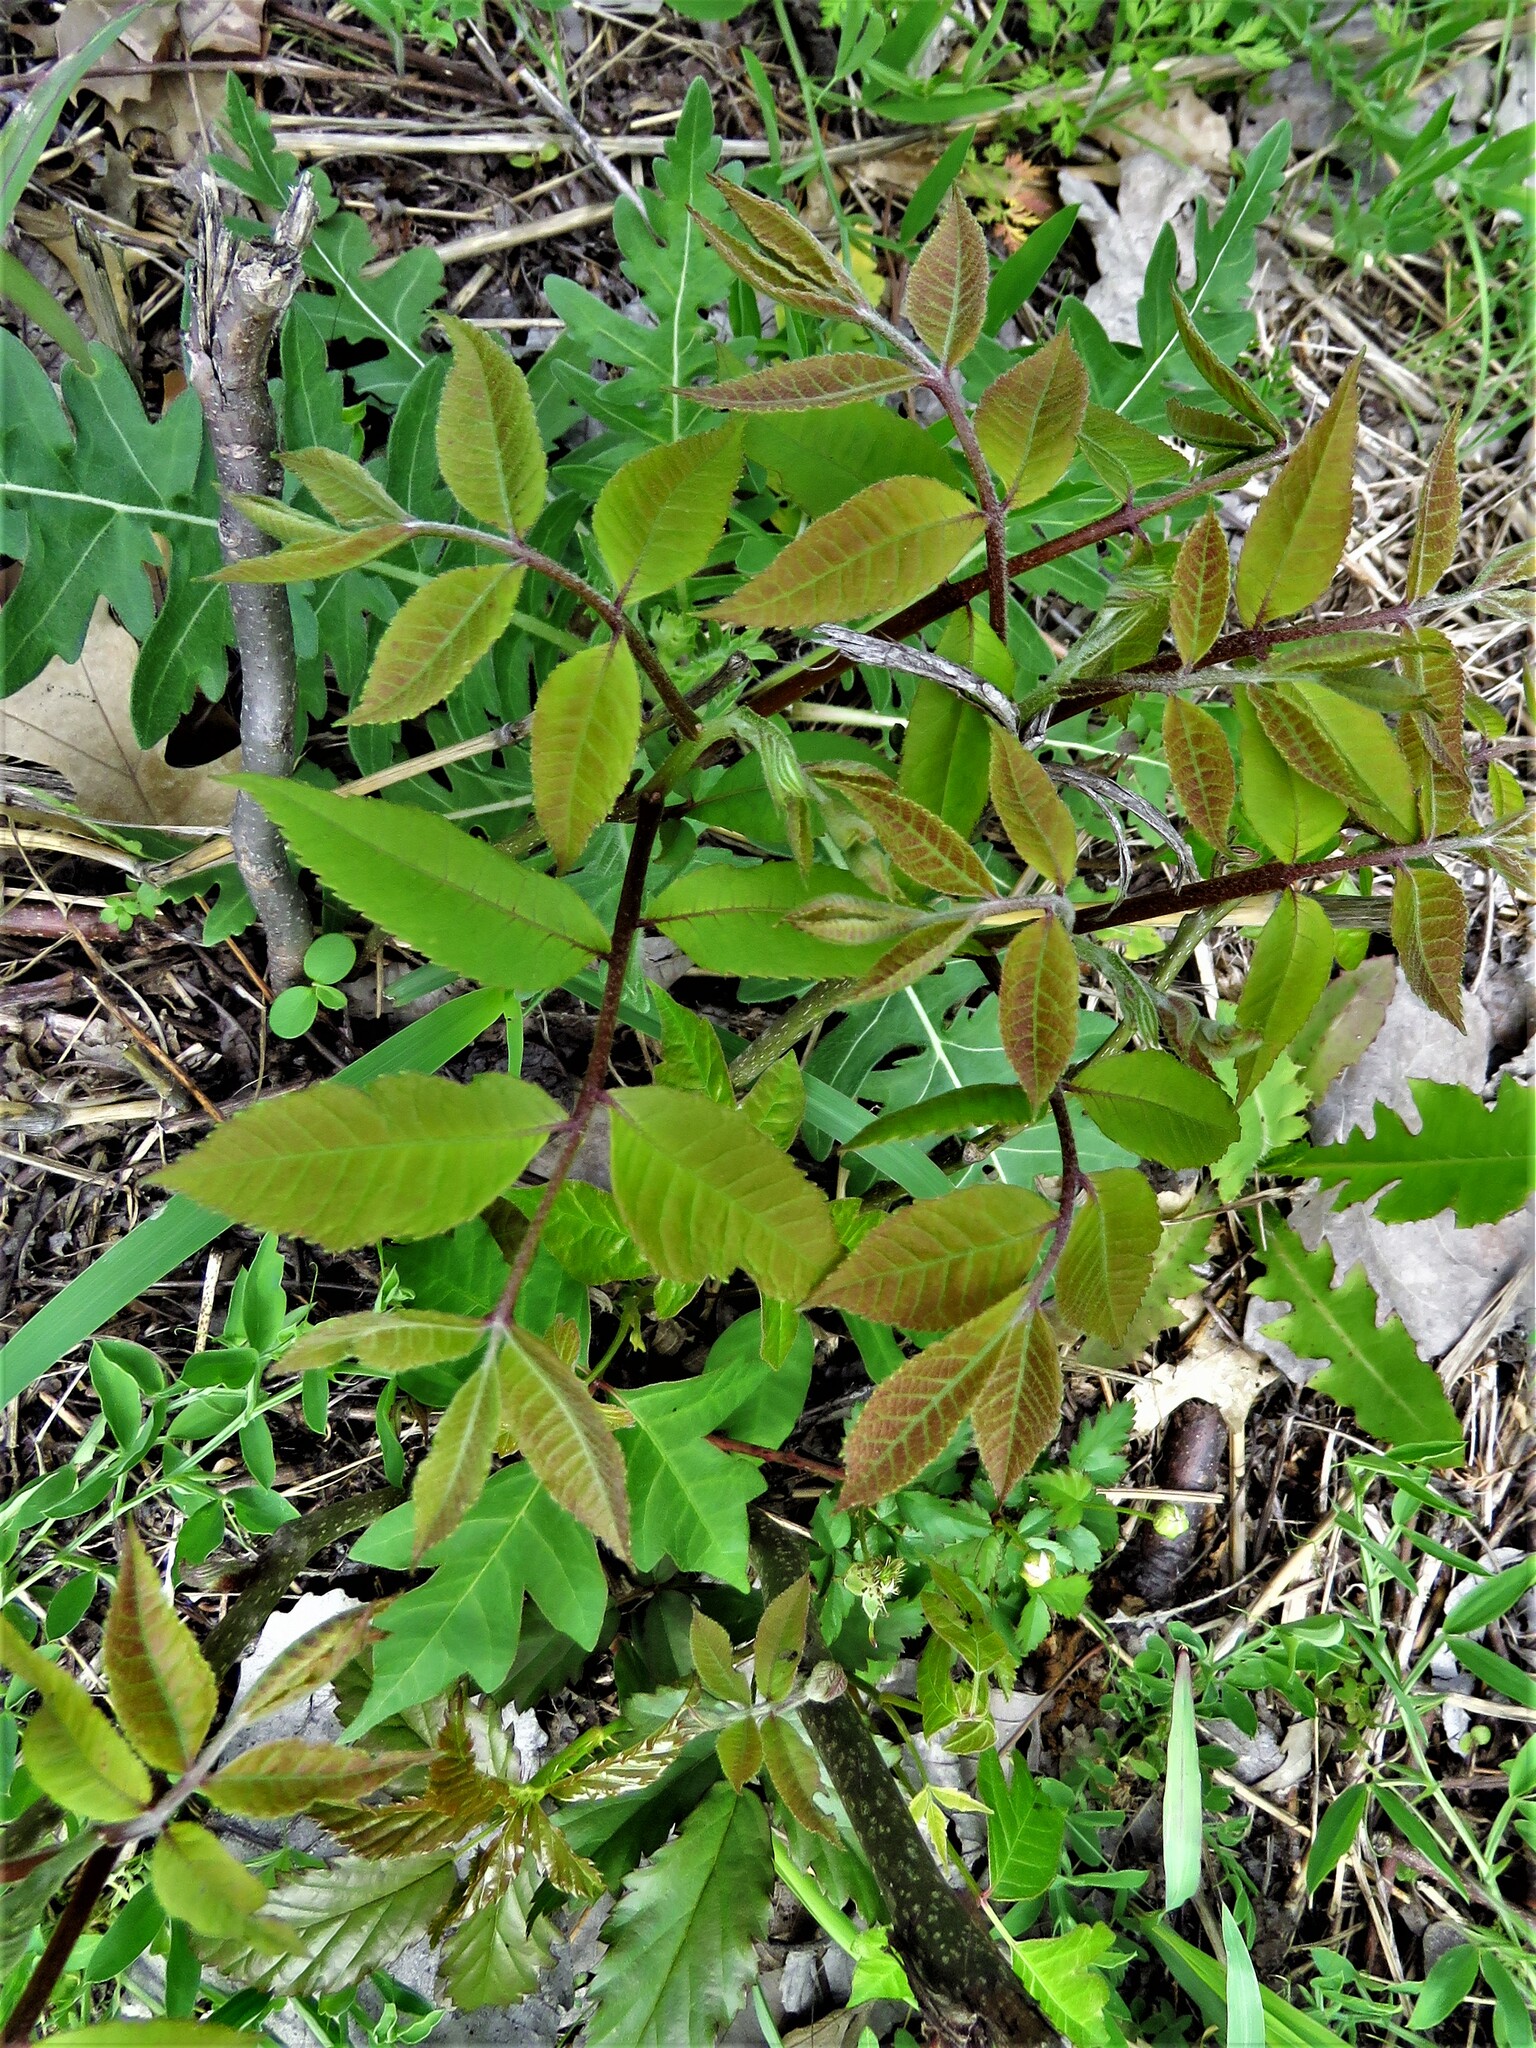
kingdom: Plantae
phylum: Tracheophyta
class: Magnoliopsida
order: Sapindales
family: Anacardiaceae
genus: Rhus
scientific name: Rhus glabra
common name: Scarlet sumac
